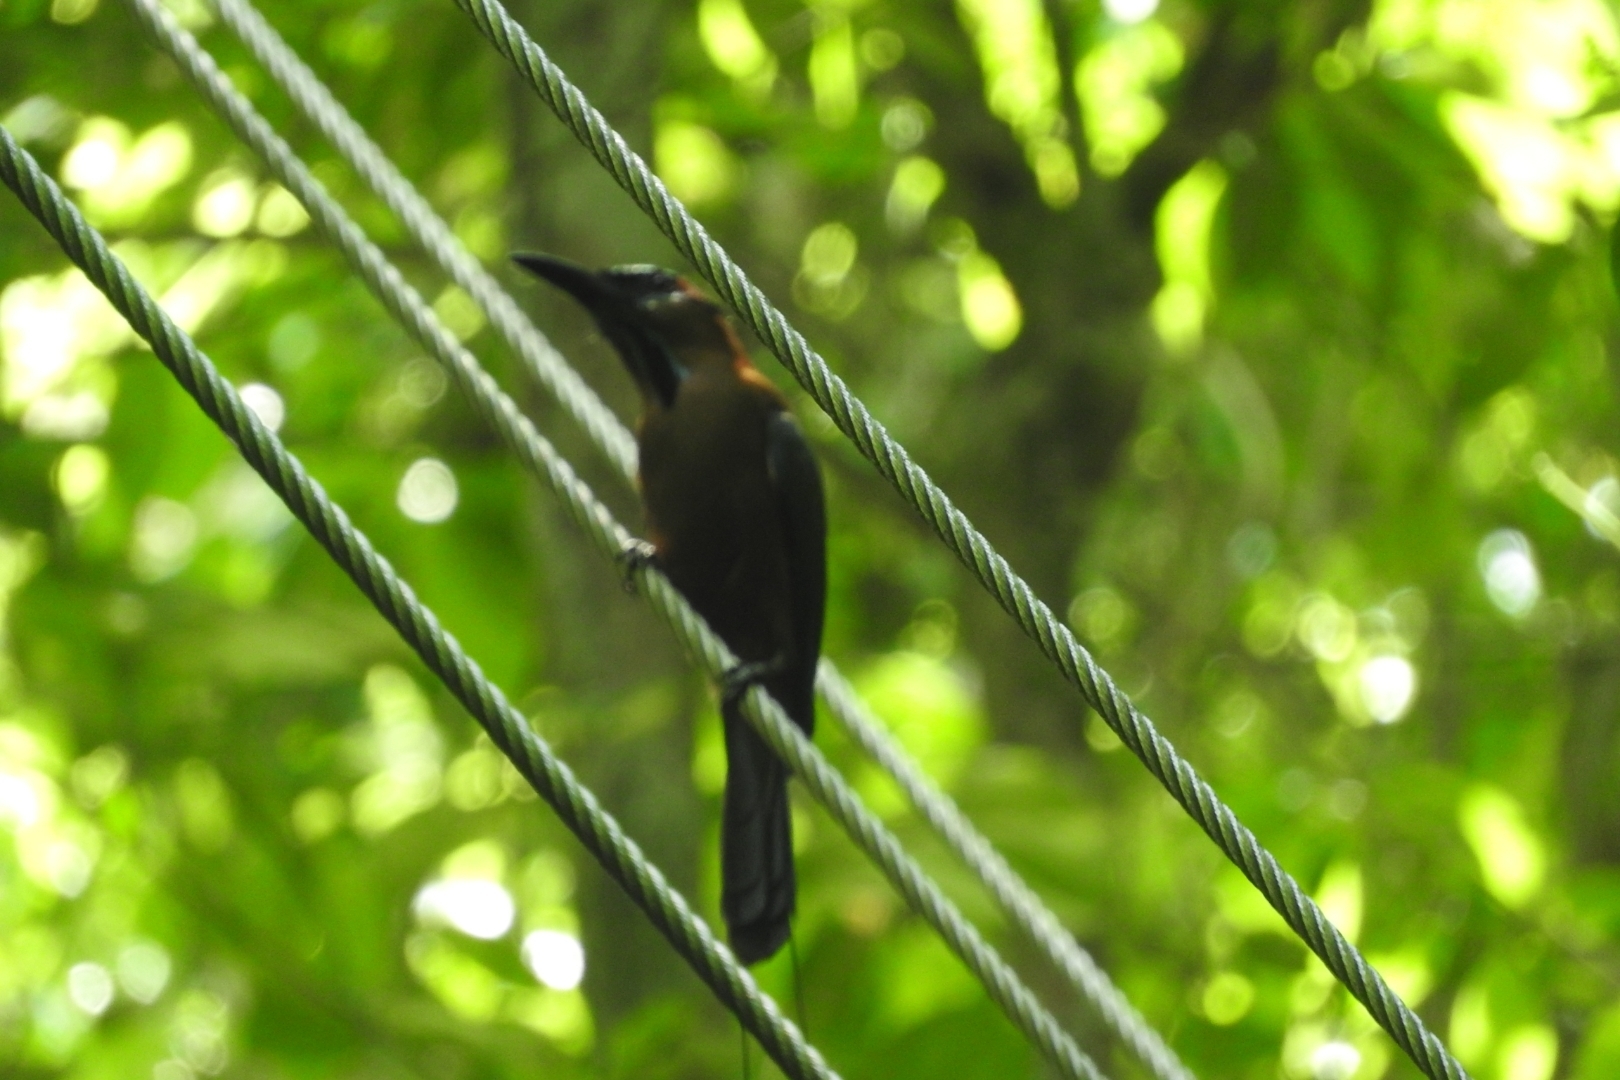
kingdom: Animalia
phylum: Chordata
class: Aves
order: Coraciiformes
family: Momotidae
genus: Eumomota
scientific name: Eumomota superciliosa
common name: Turquoise-browed motmot
